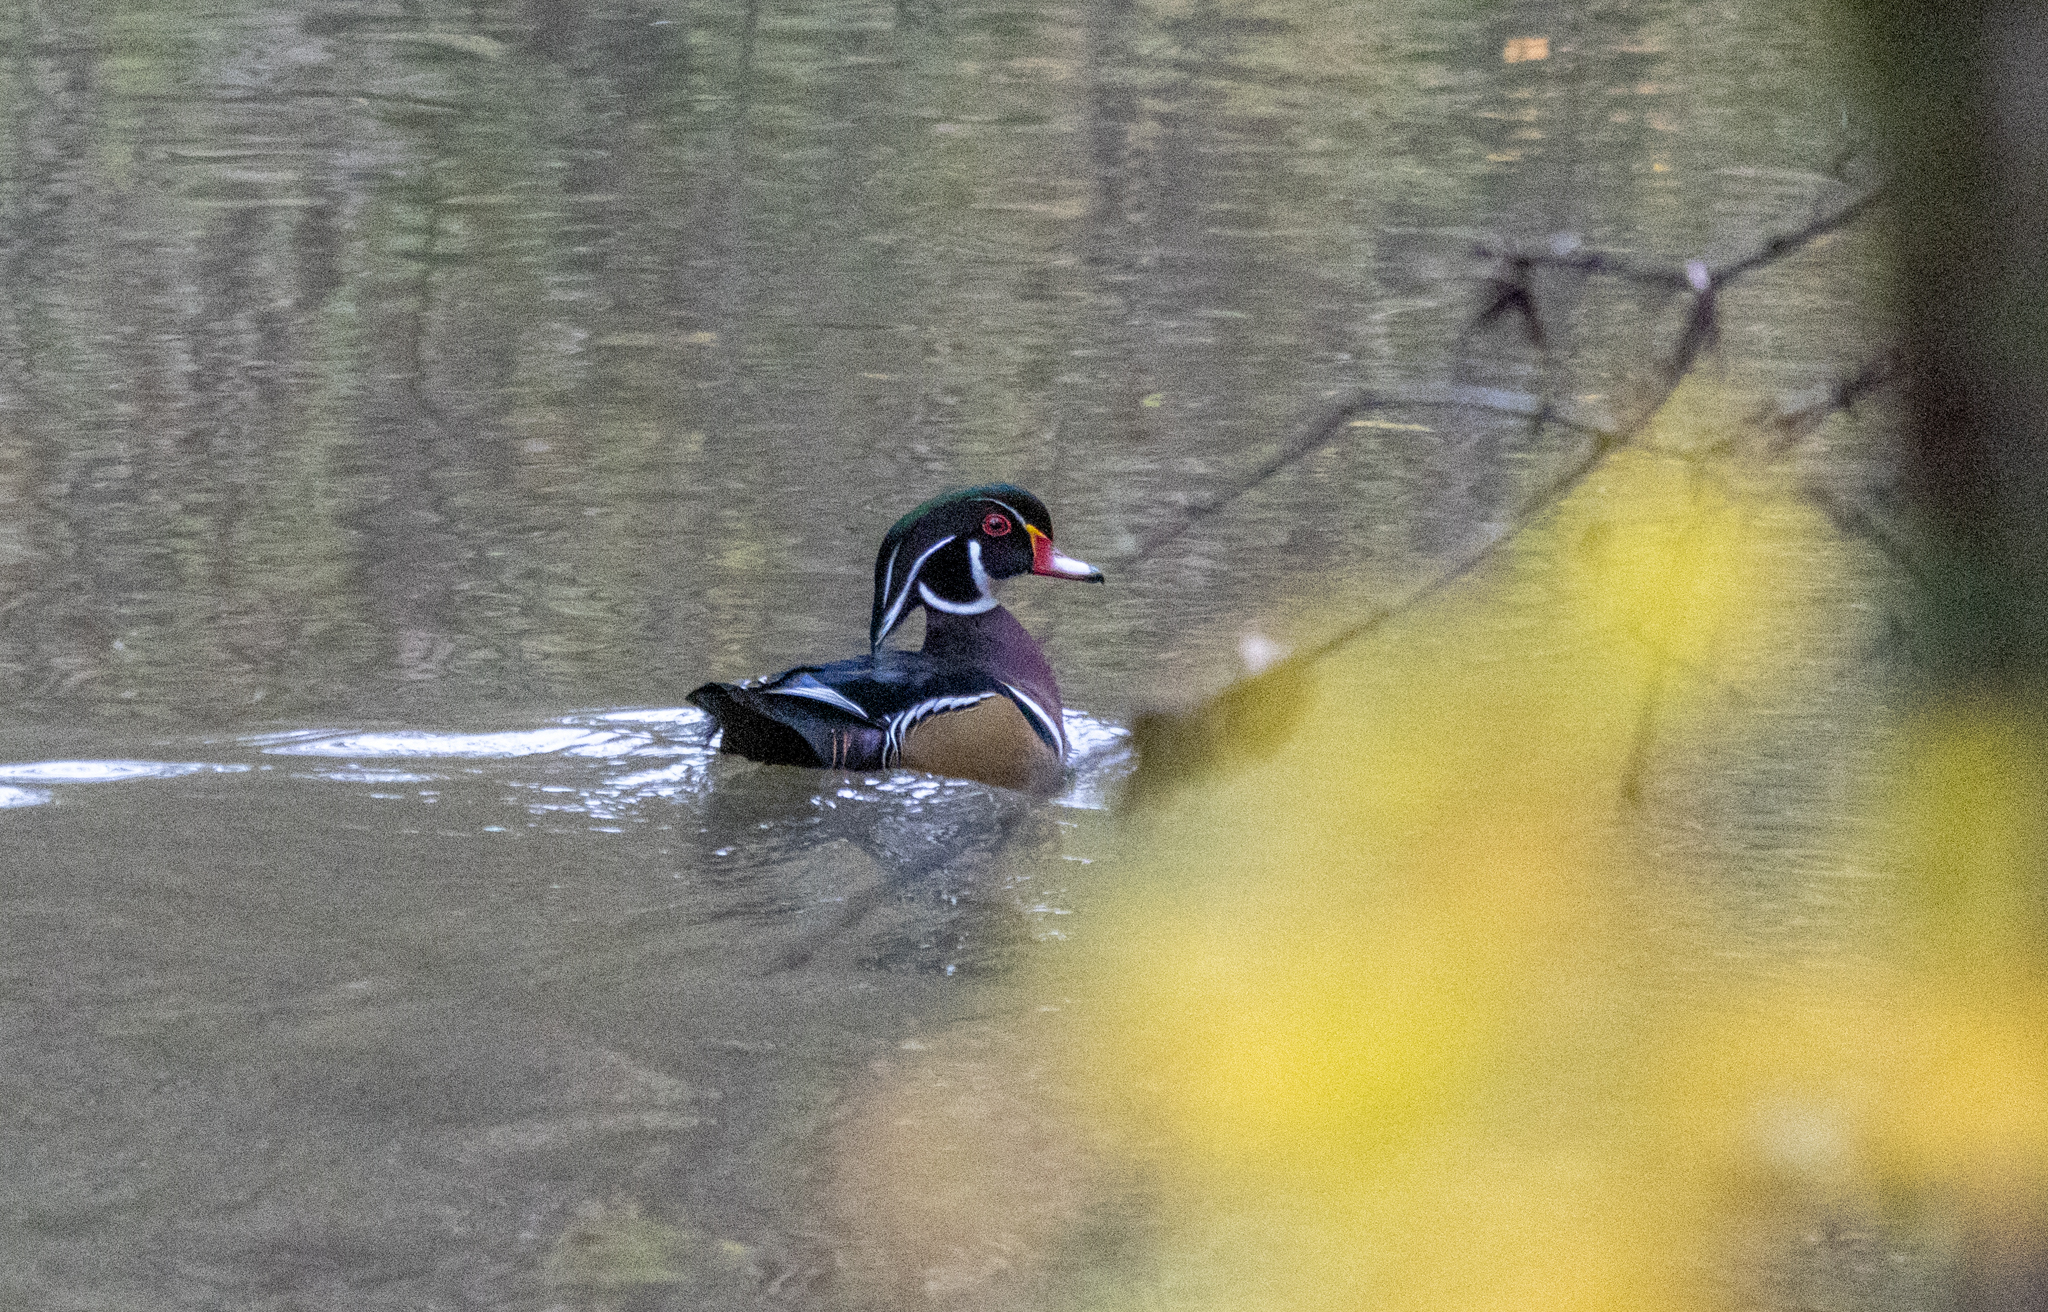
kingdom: Animalia
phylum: Chordata
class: Aves
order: Anseriformes
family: Anatidae
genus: Aix
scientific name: Aix sponsa
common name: Wood duck
